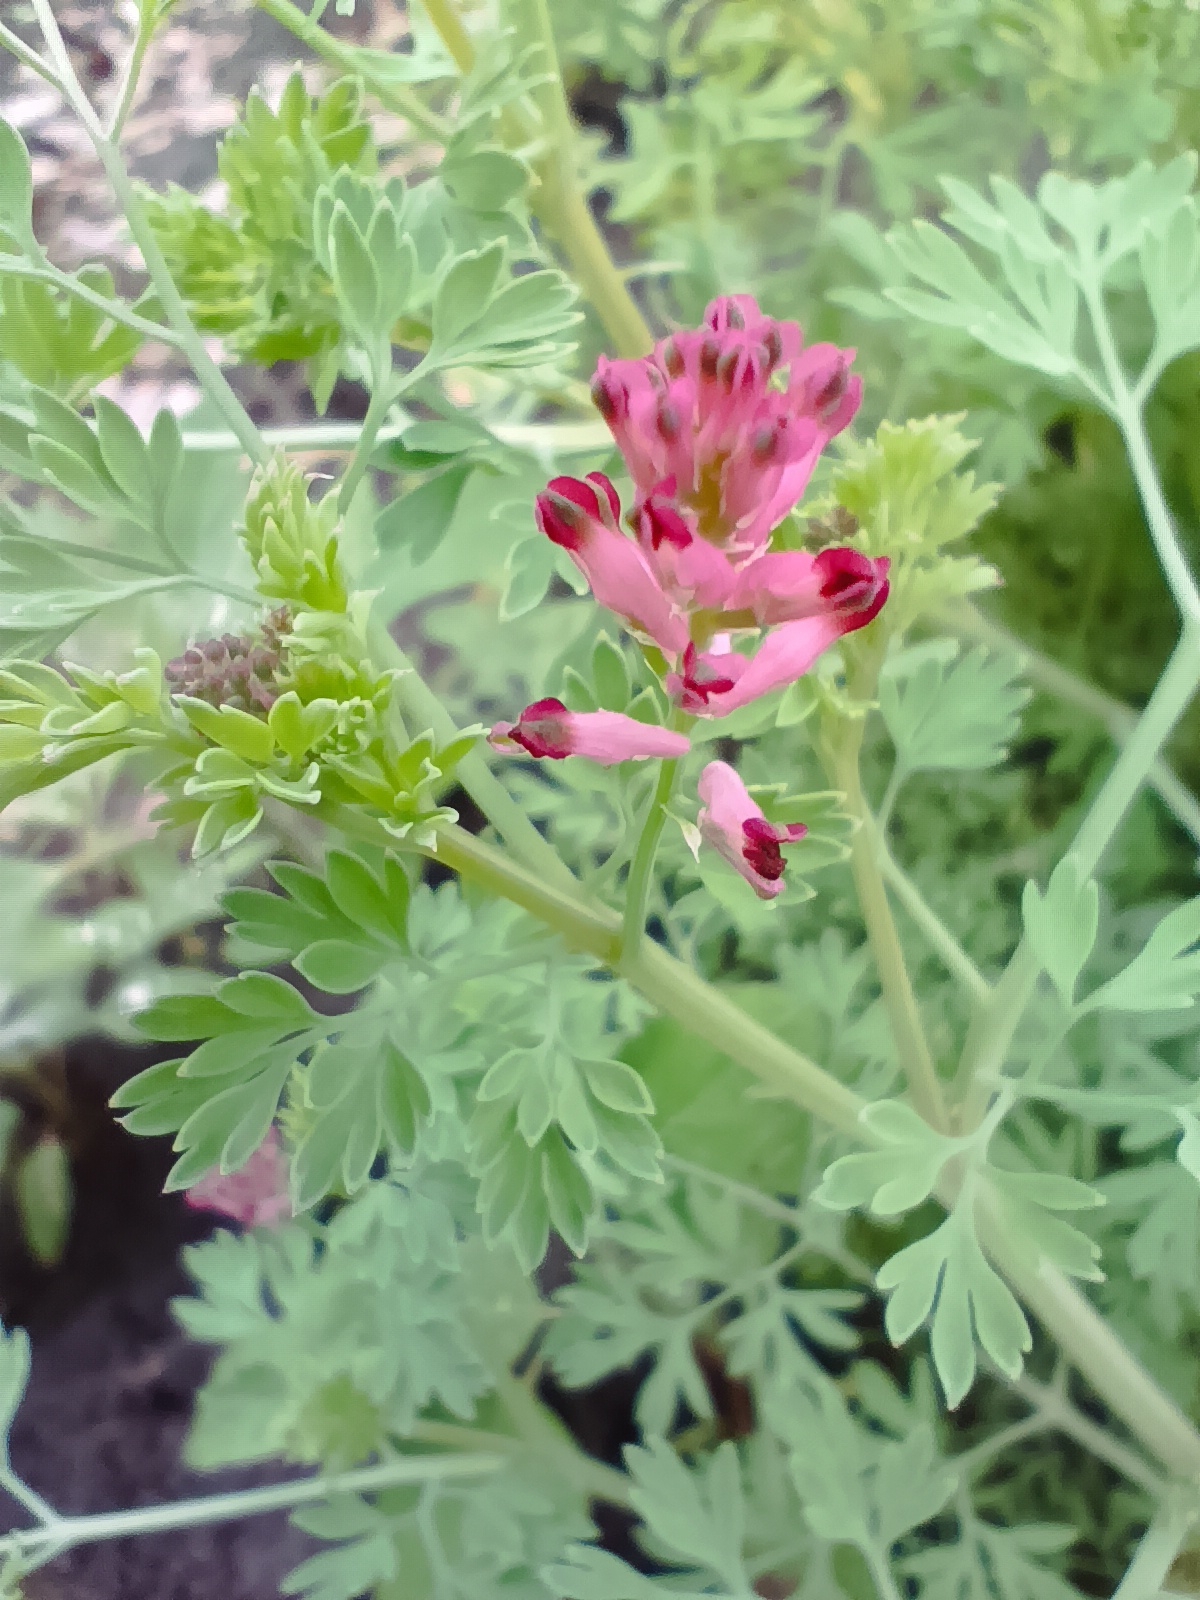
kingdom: Plantae
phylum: Tracheophyta
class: Magnoliopsida
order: Ranunculales
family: Papaveraceae
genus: Fumaria
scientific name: Fumaria officinalis
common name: Common fumitory
